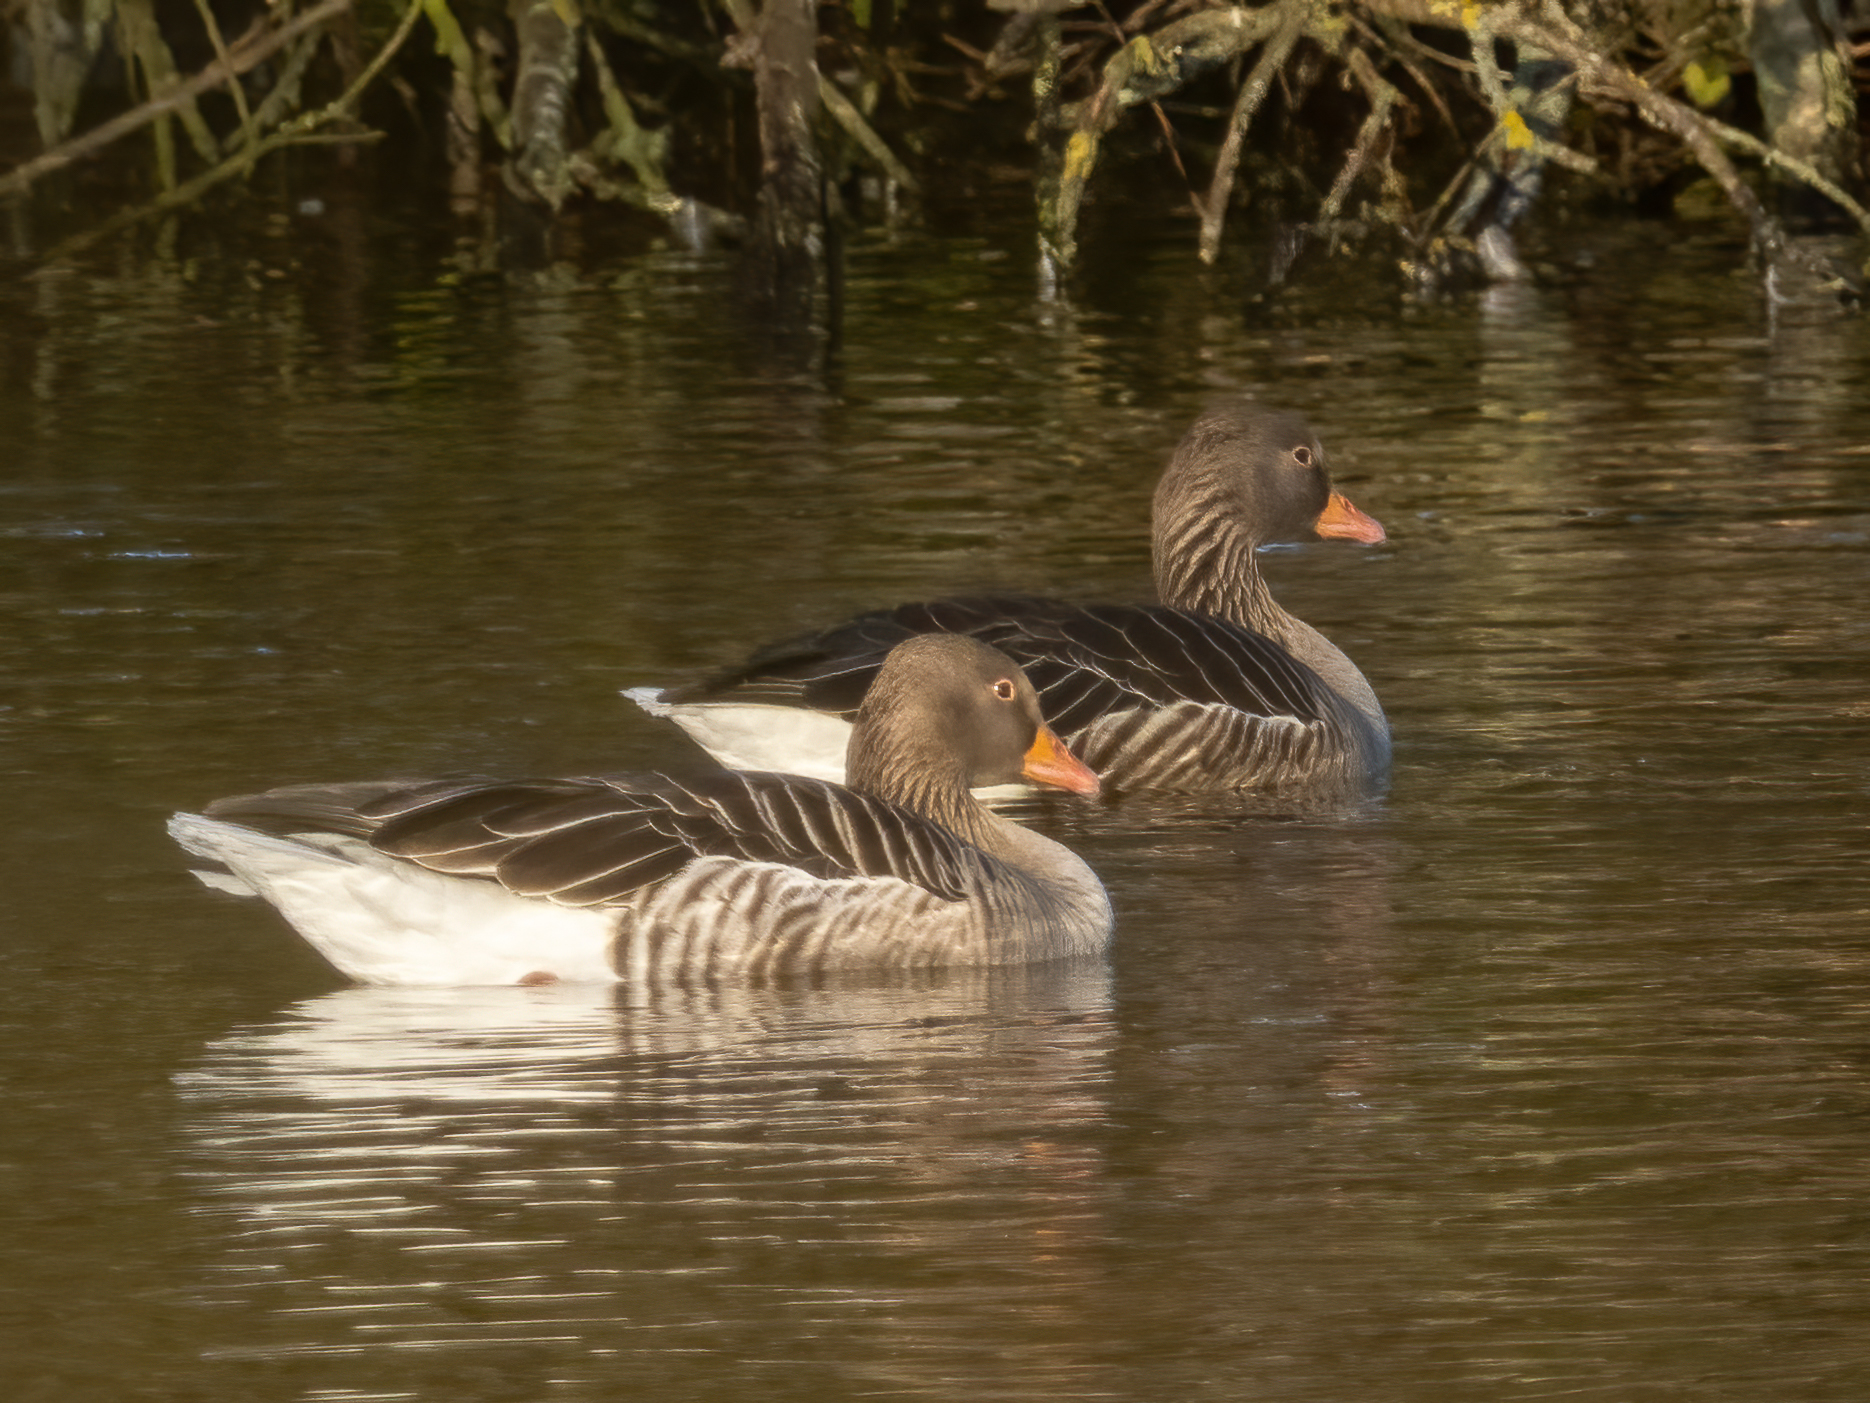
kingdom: Animalia
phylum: Chordata
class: Aves
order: Anseriformes
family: Anatidae
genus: Anser
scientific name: Anser anser
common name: Greylag goose
